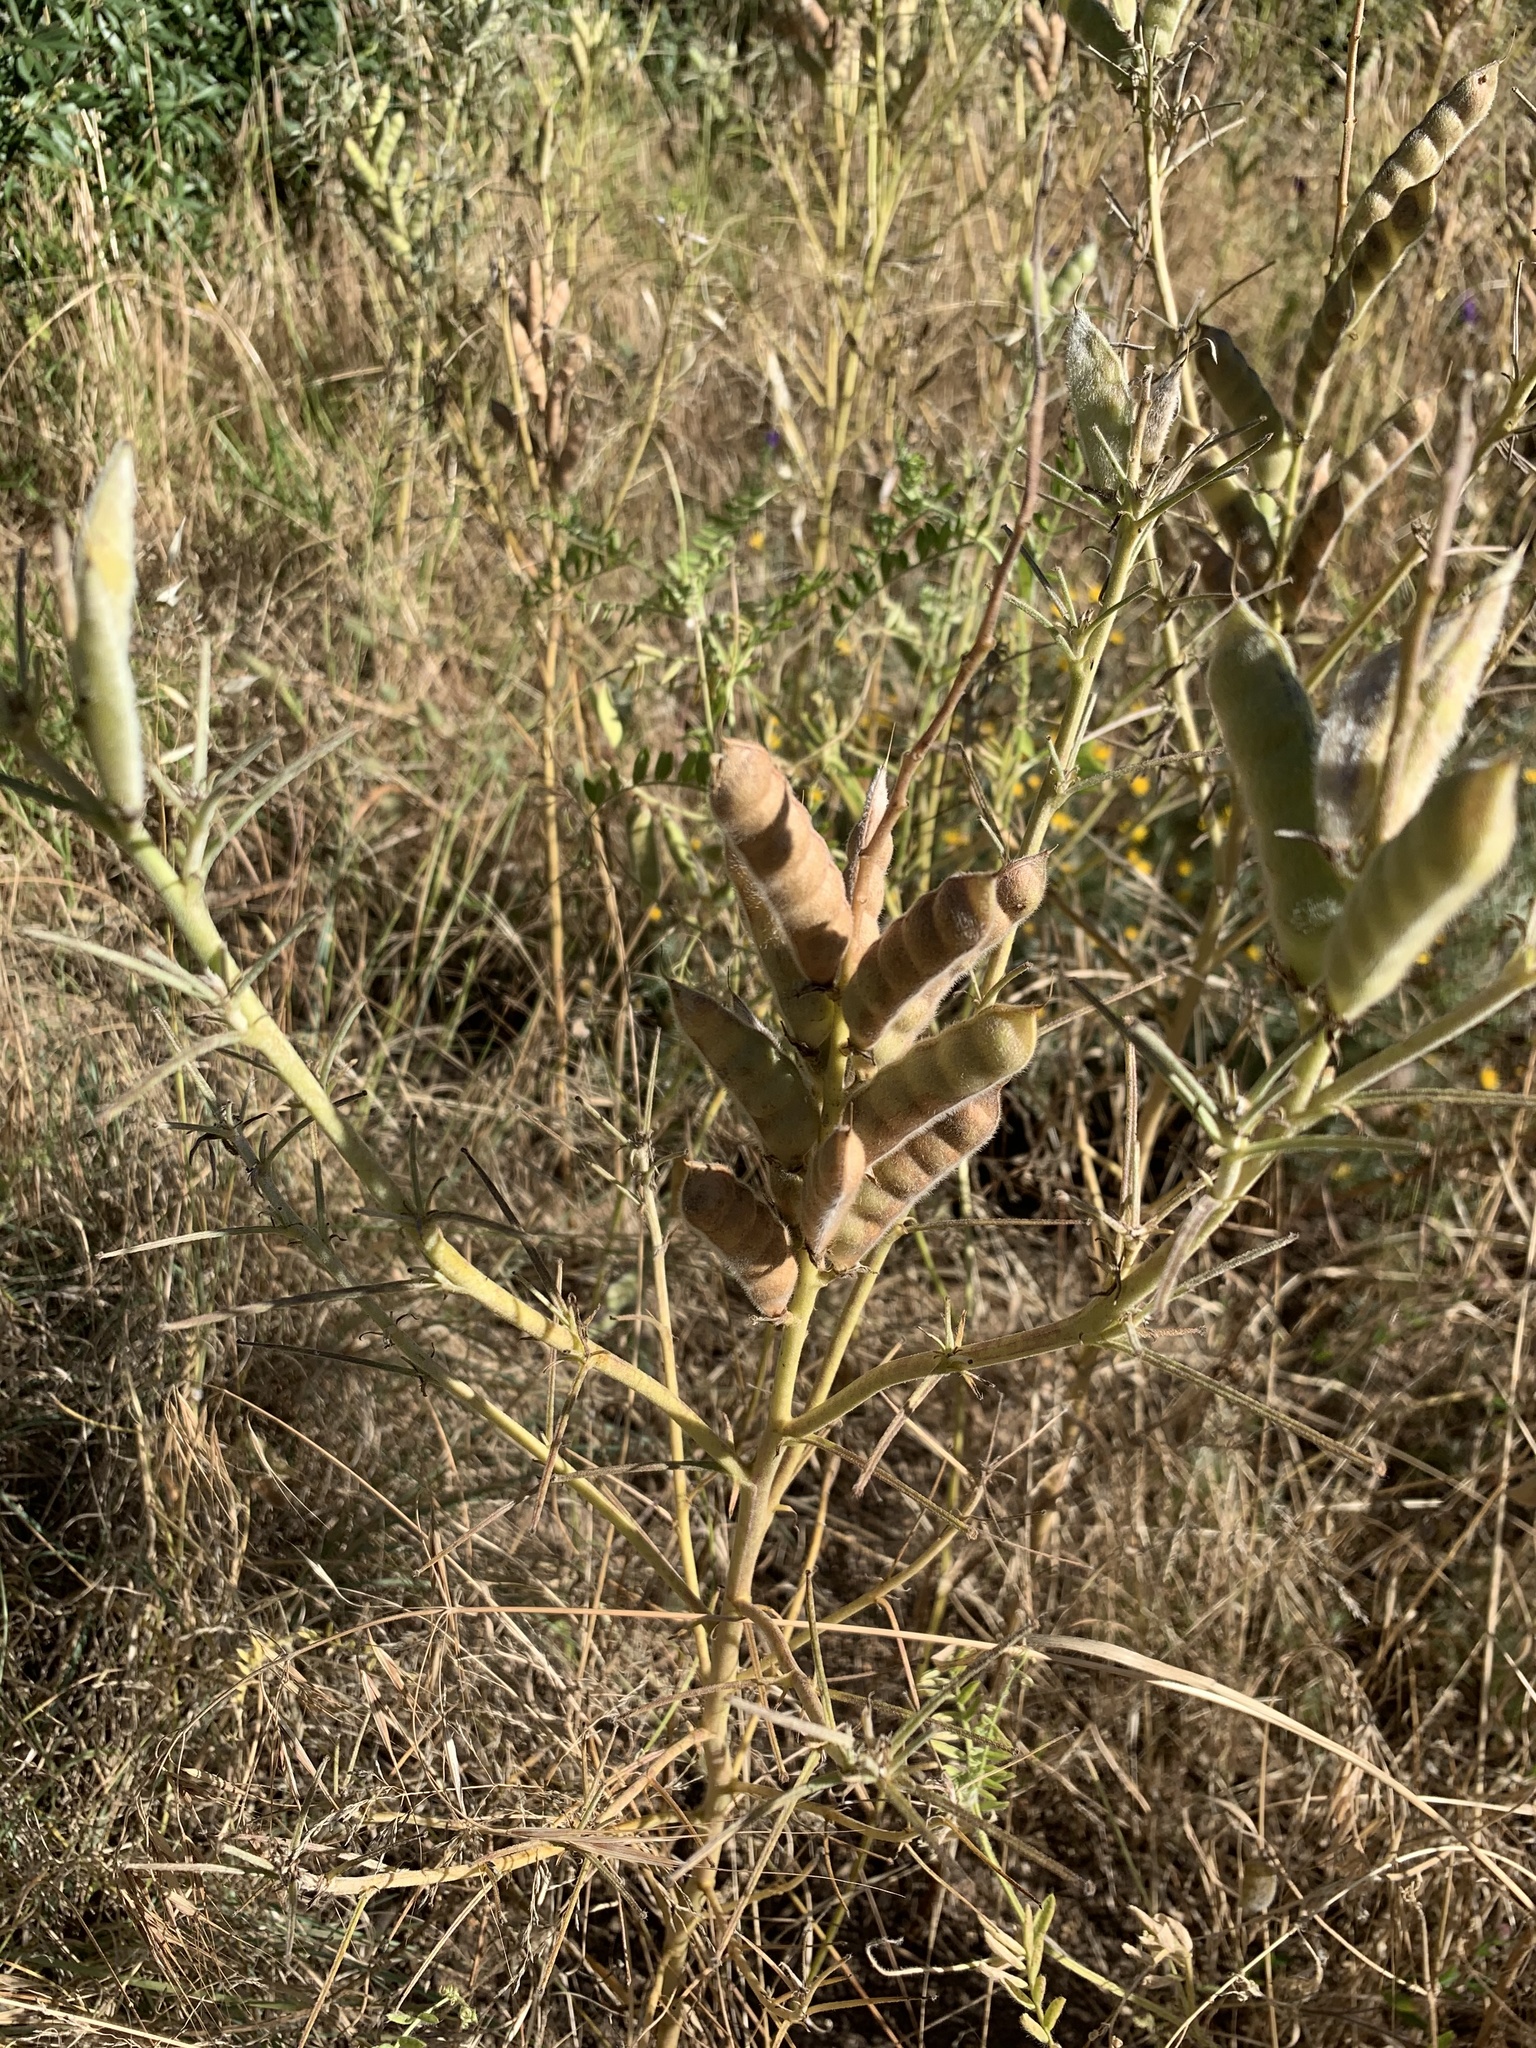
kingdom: Plantae
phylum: Tracheophyta
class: Magnoliopsida
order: Fabales
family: Fabaceae
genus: Lupinus
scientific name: Lupinus angustifolius
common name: Narrow-leaved lupin
